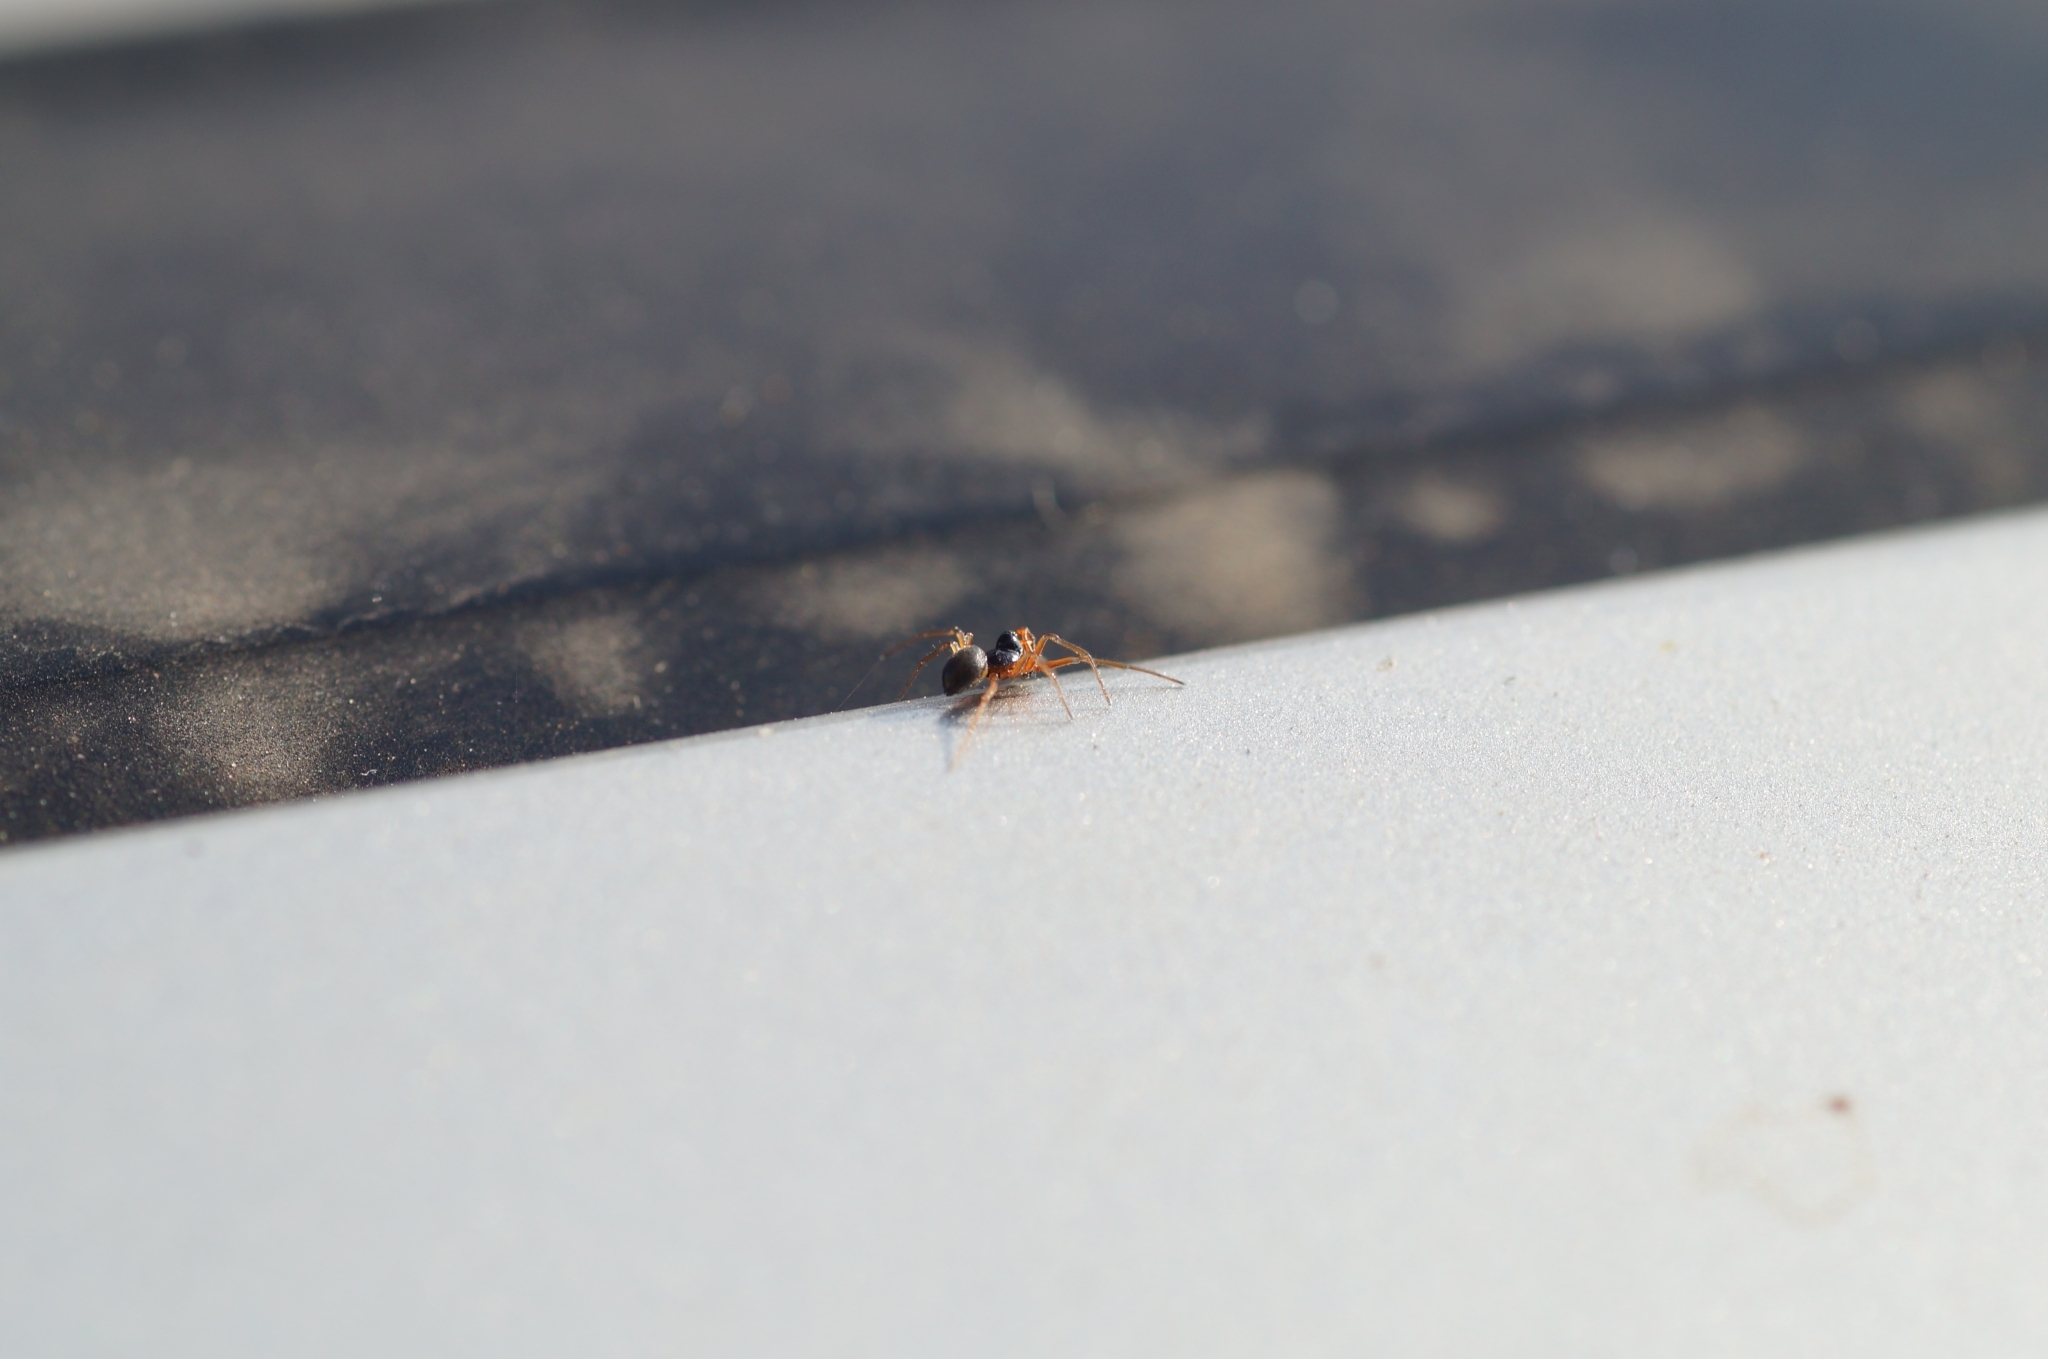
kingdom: Animalia
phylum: Arthropoda
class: Arachnida
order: Araneae
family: Linyphiidae
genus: Erigone
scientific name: Erigone dentipalpis
